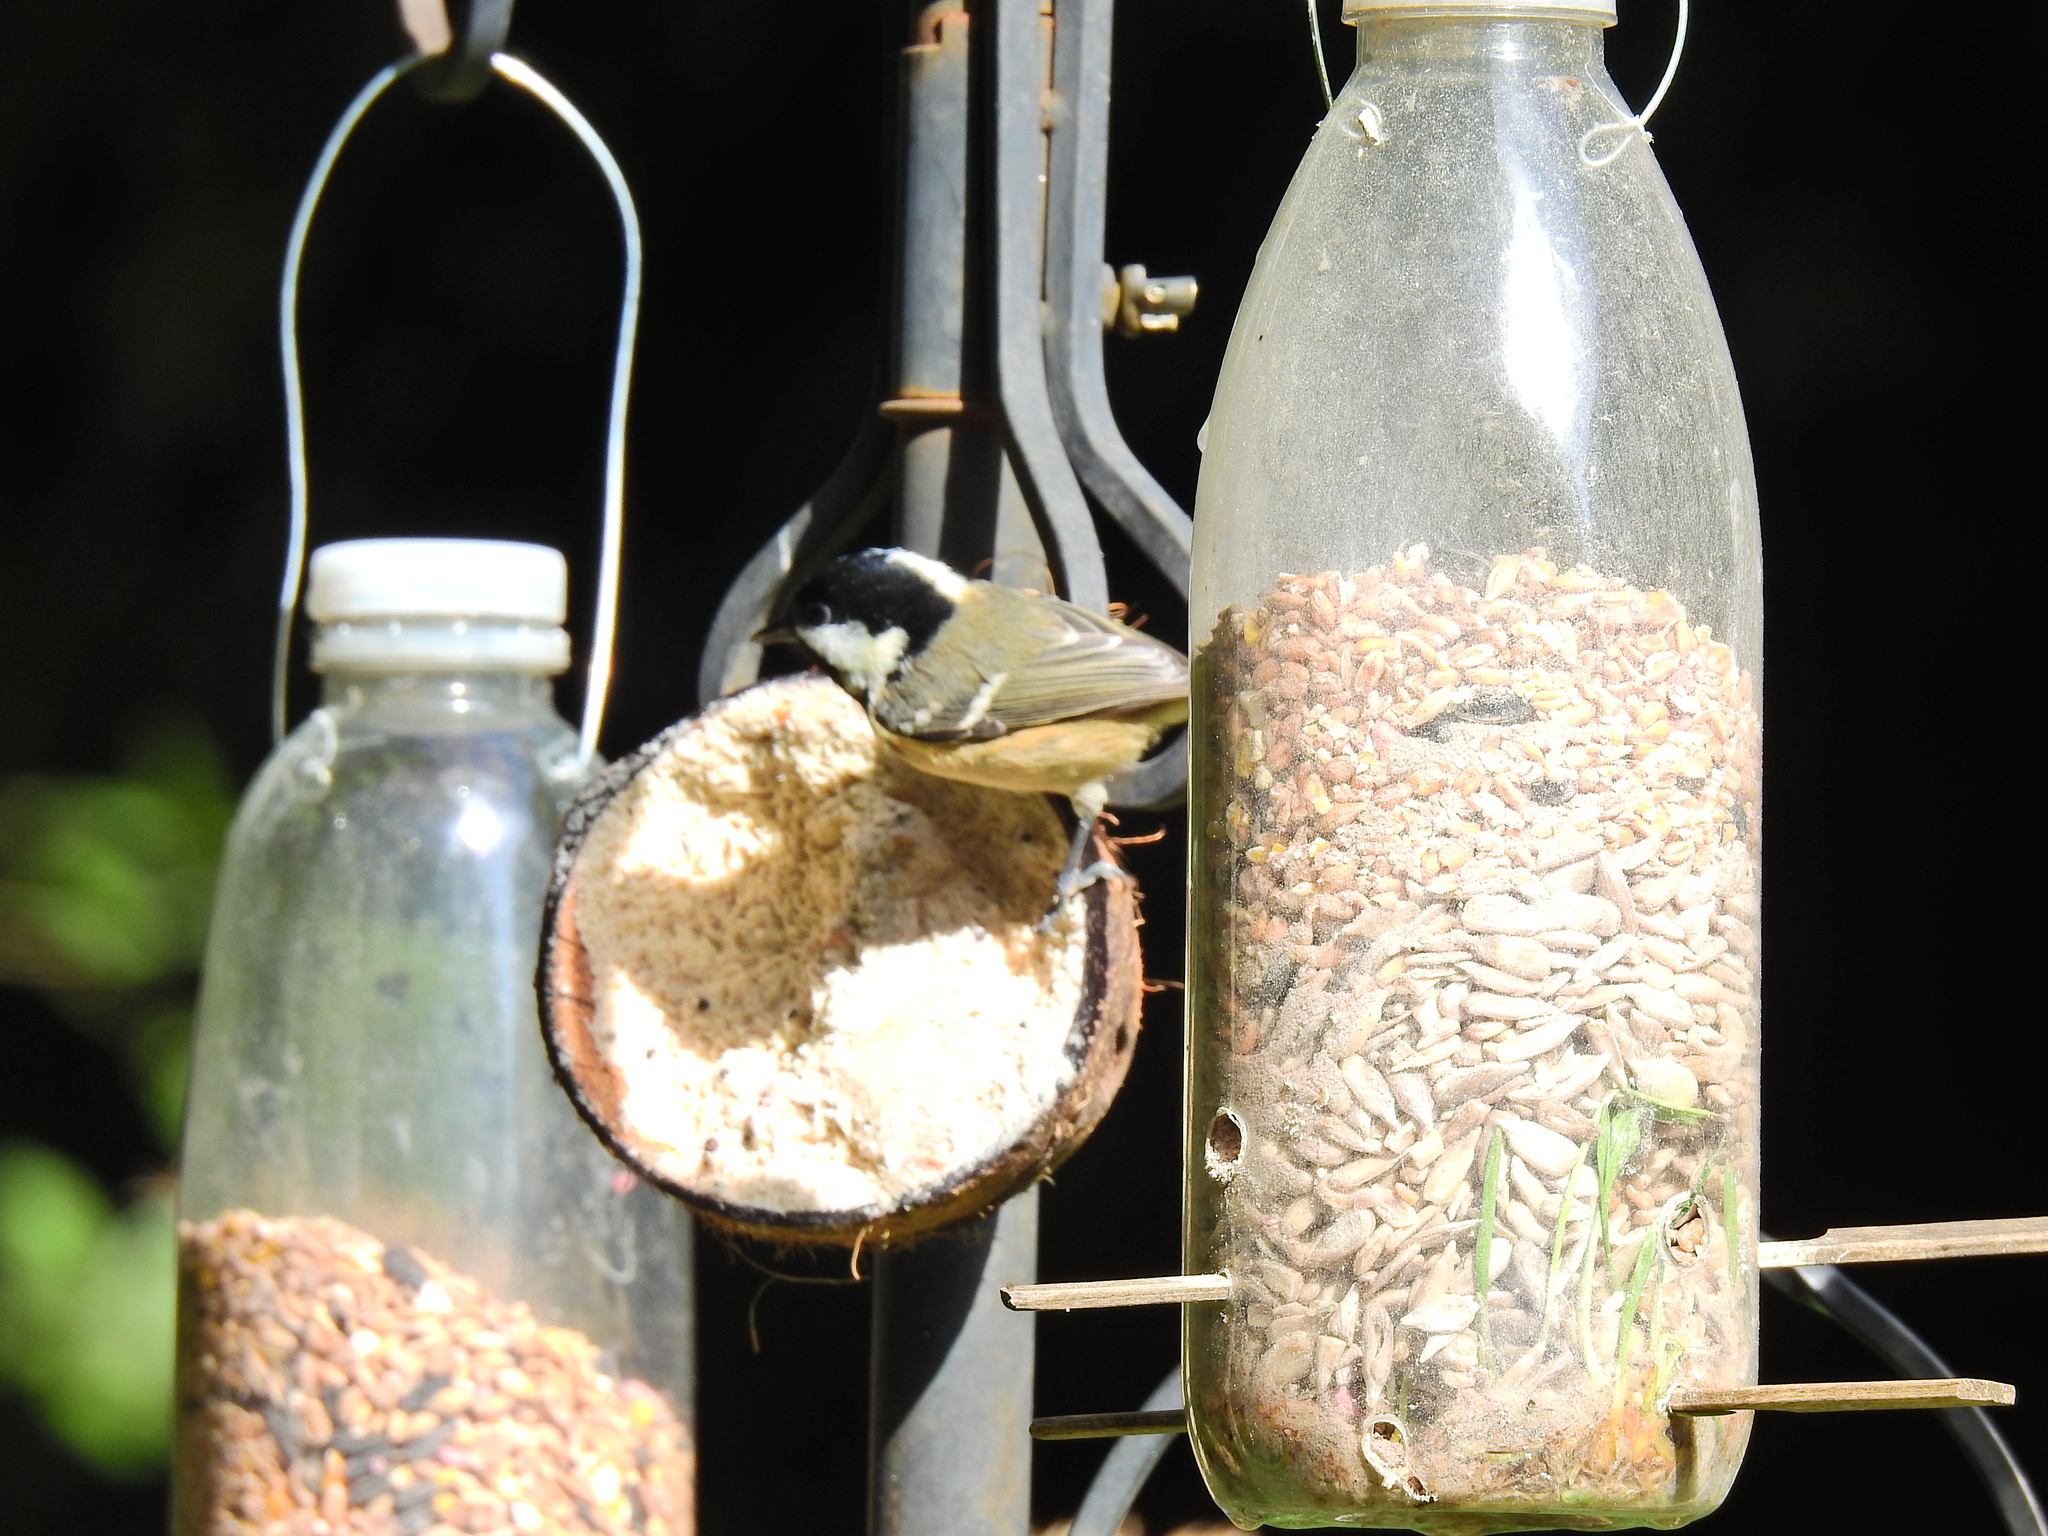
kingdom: Animalia
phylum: Chordata
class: Aves
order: Passeriformes
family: Paridae
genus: Periparus
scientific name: Periparus ater
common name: Coal tit
